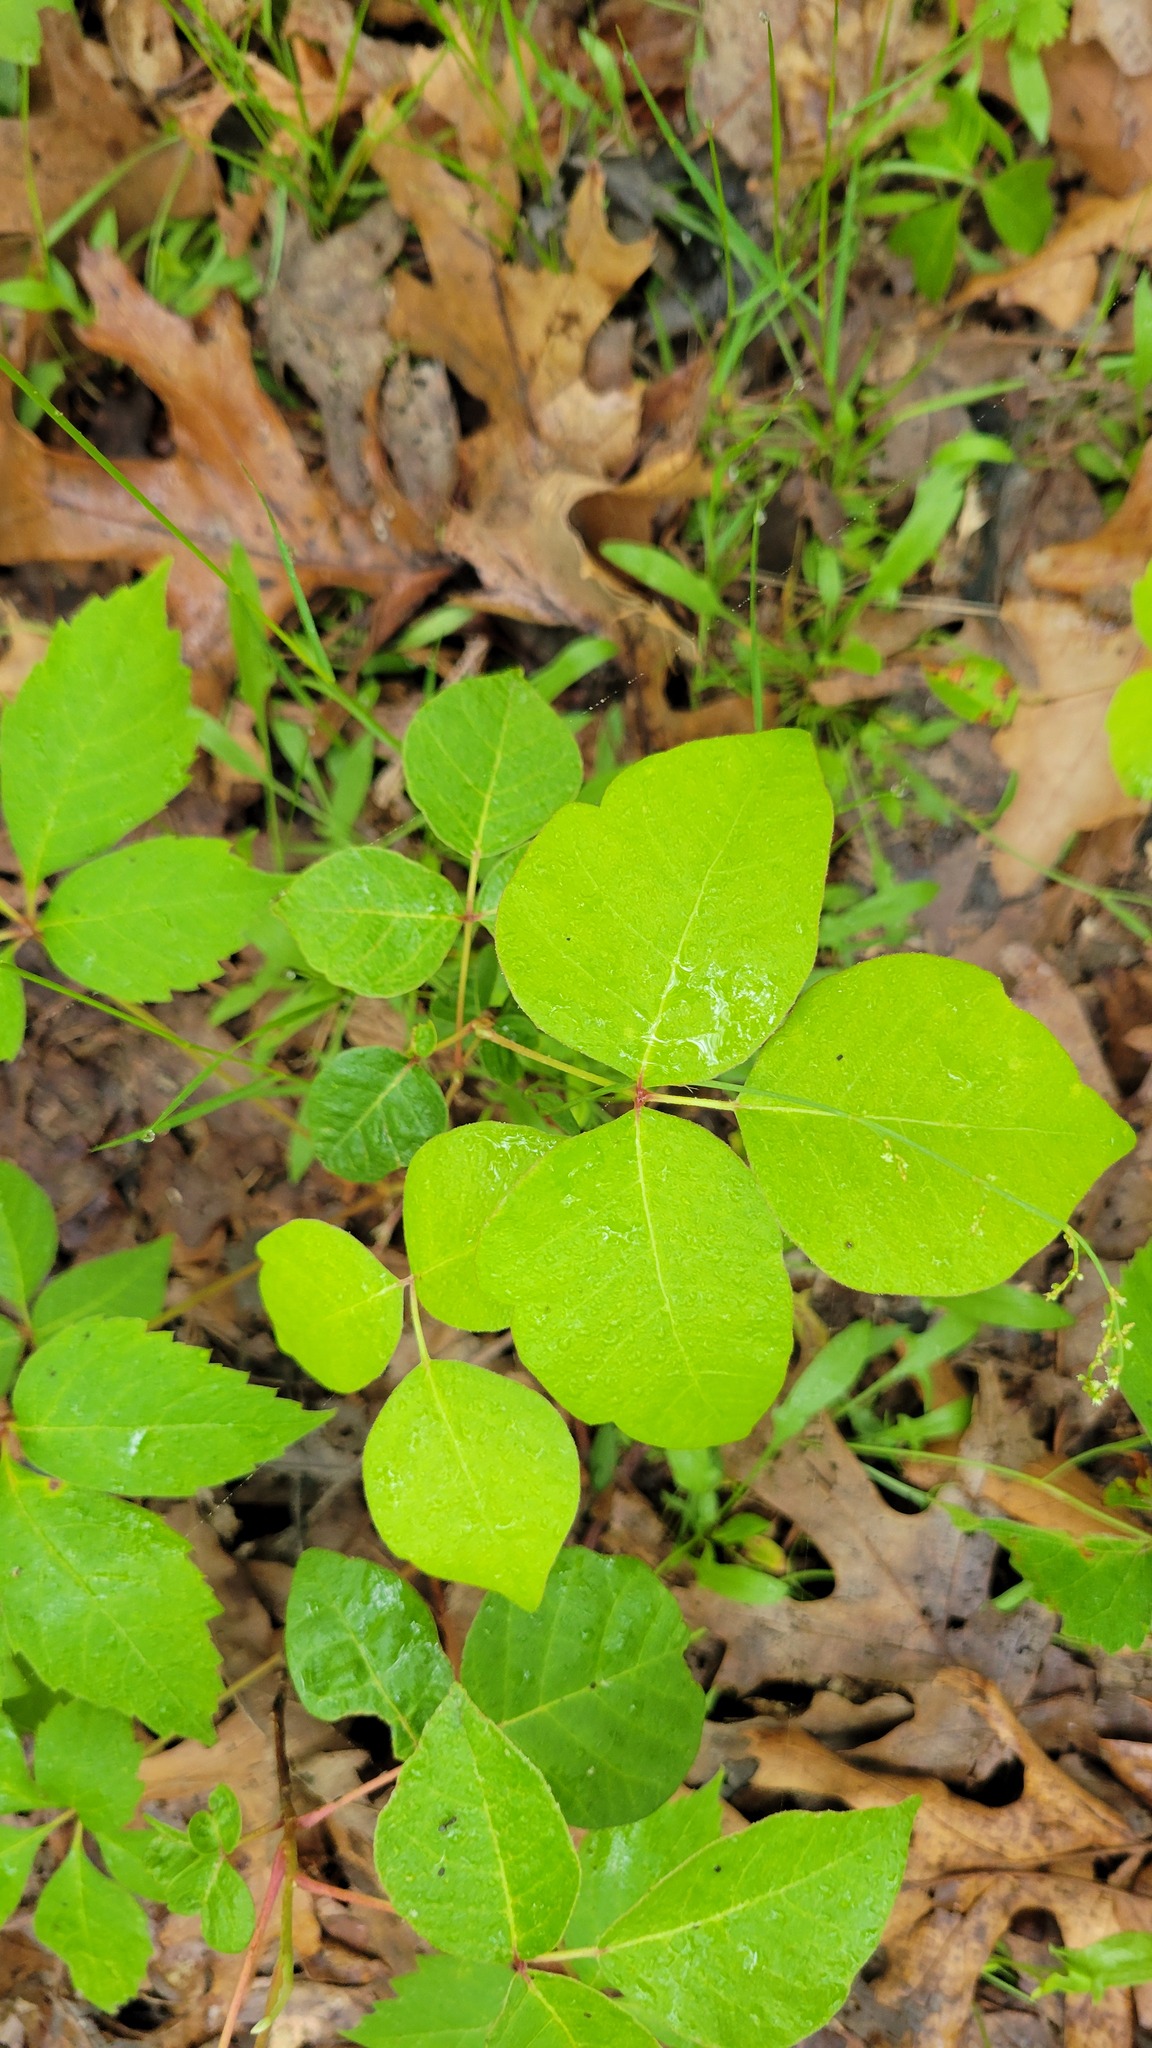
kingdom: Plantae
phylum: Tracheophyta
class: Magnoliopsida
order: Sapindales
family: Anacardiaceae
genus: Toxicodendron
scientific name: Toxicodendron radicans
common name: Poison ivy
